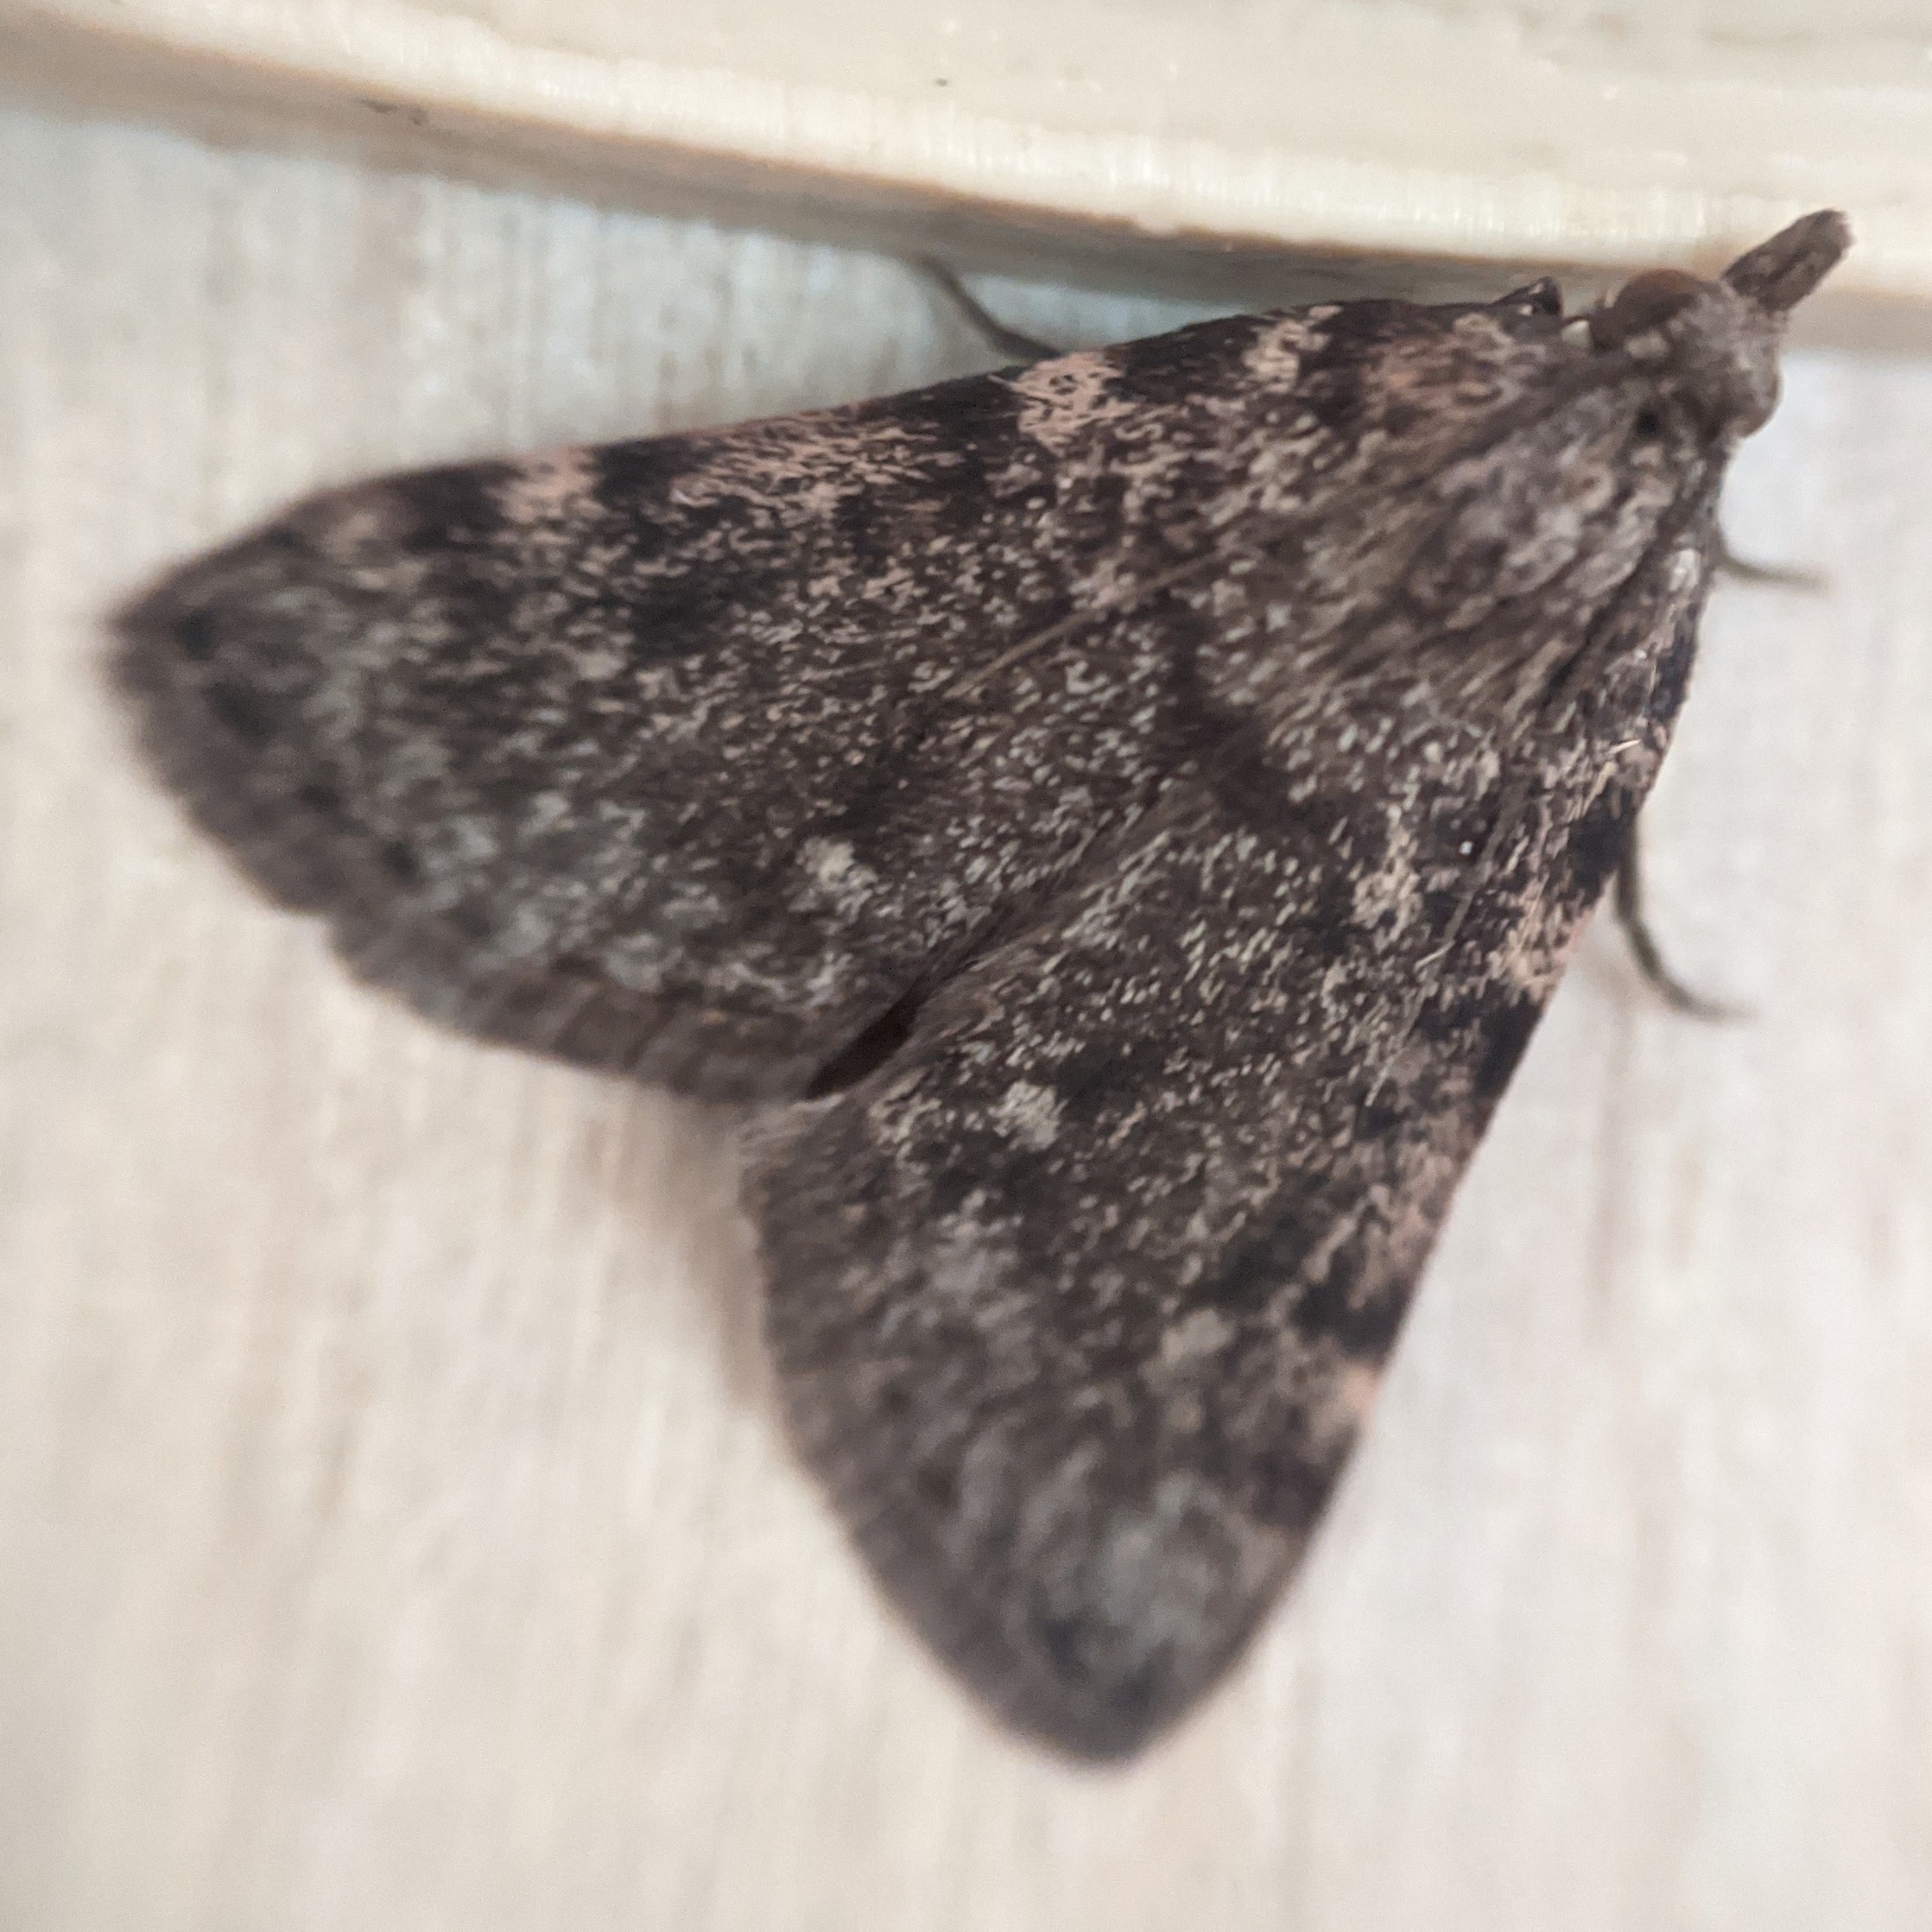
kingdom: Animalia
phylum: Arthropoda
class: Insecta
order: Lepidoptera
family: Pyralidae
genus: Aglossa
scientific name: Aglossa pinguinalis
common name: Large tabby
